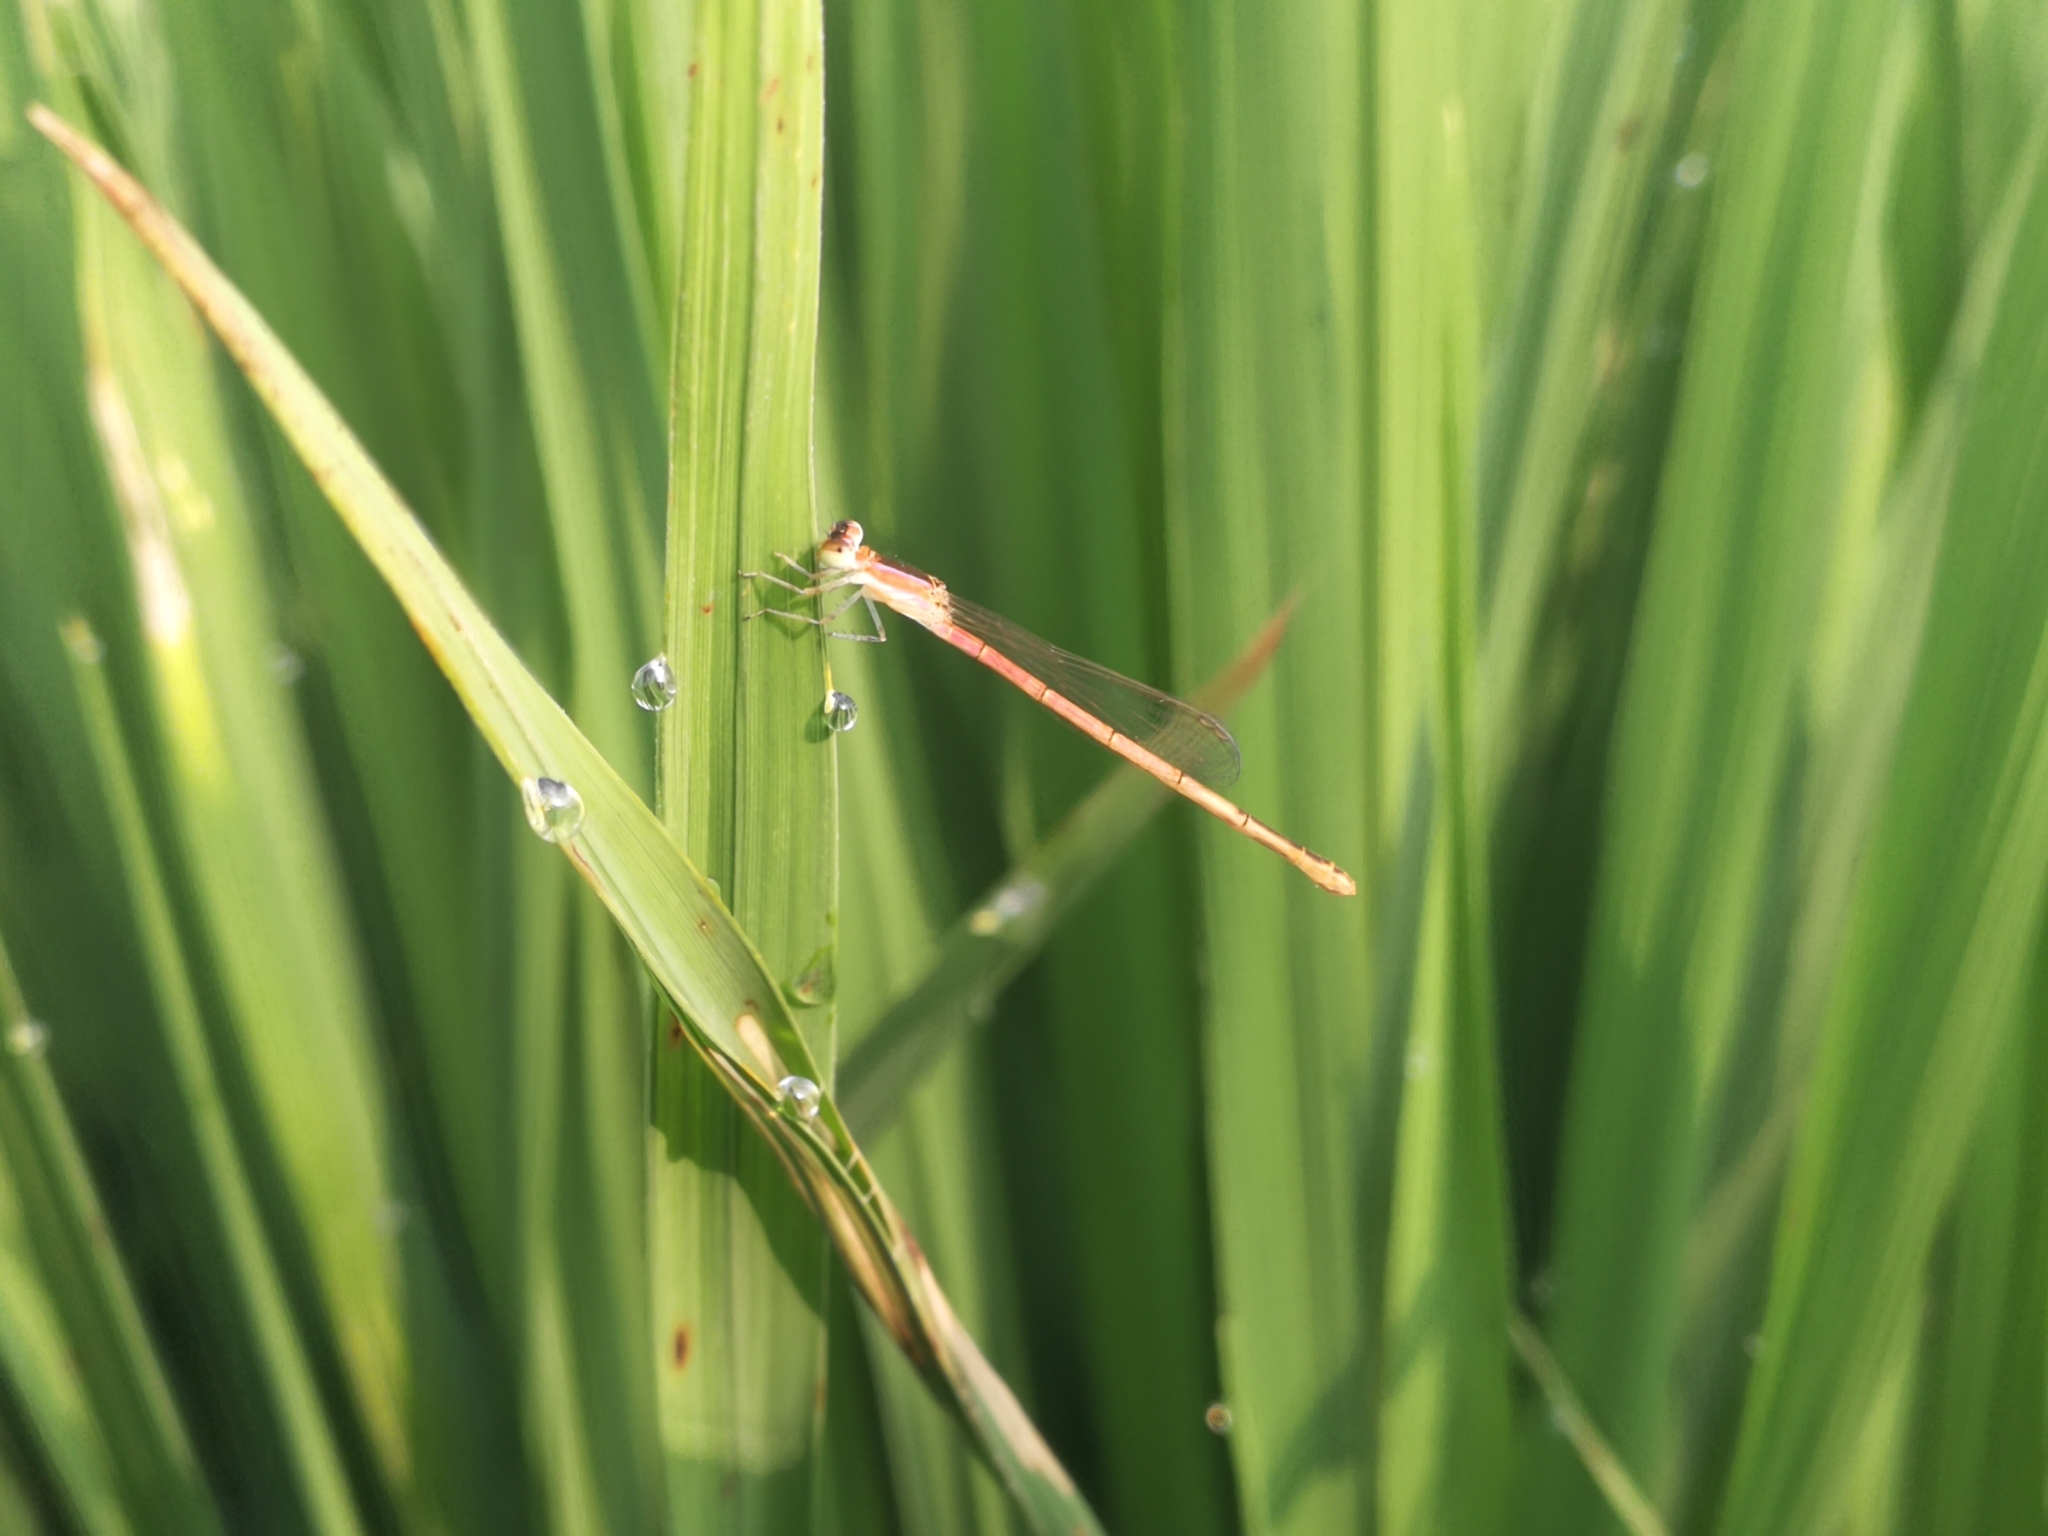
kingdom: Animalia
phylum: Arthropoda
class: Insecta
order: Odonata
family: Coenagrionidae
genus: Agriocnemis
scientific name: Agriocnemis pygmaea
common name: Pygmy wisp
